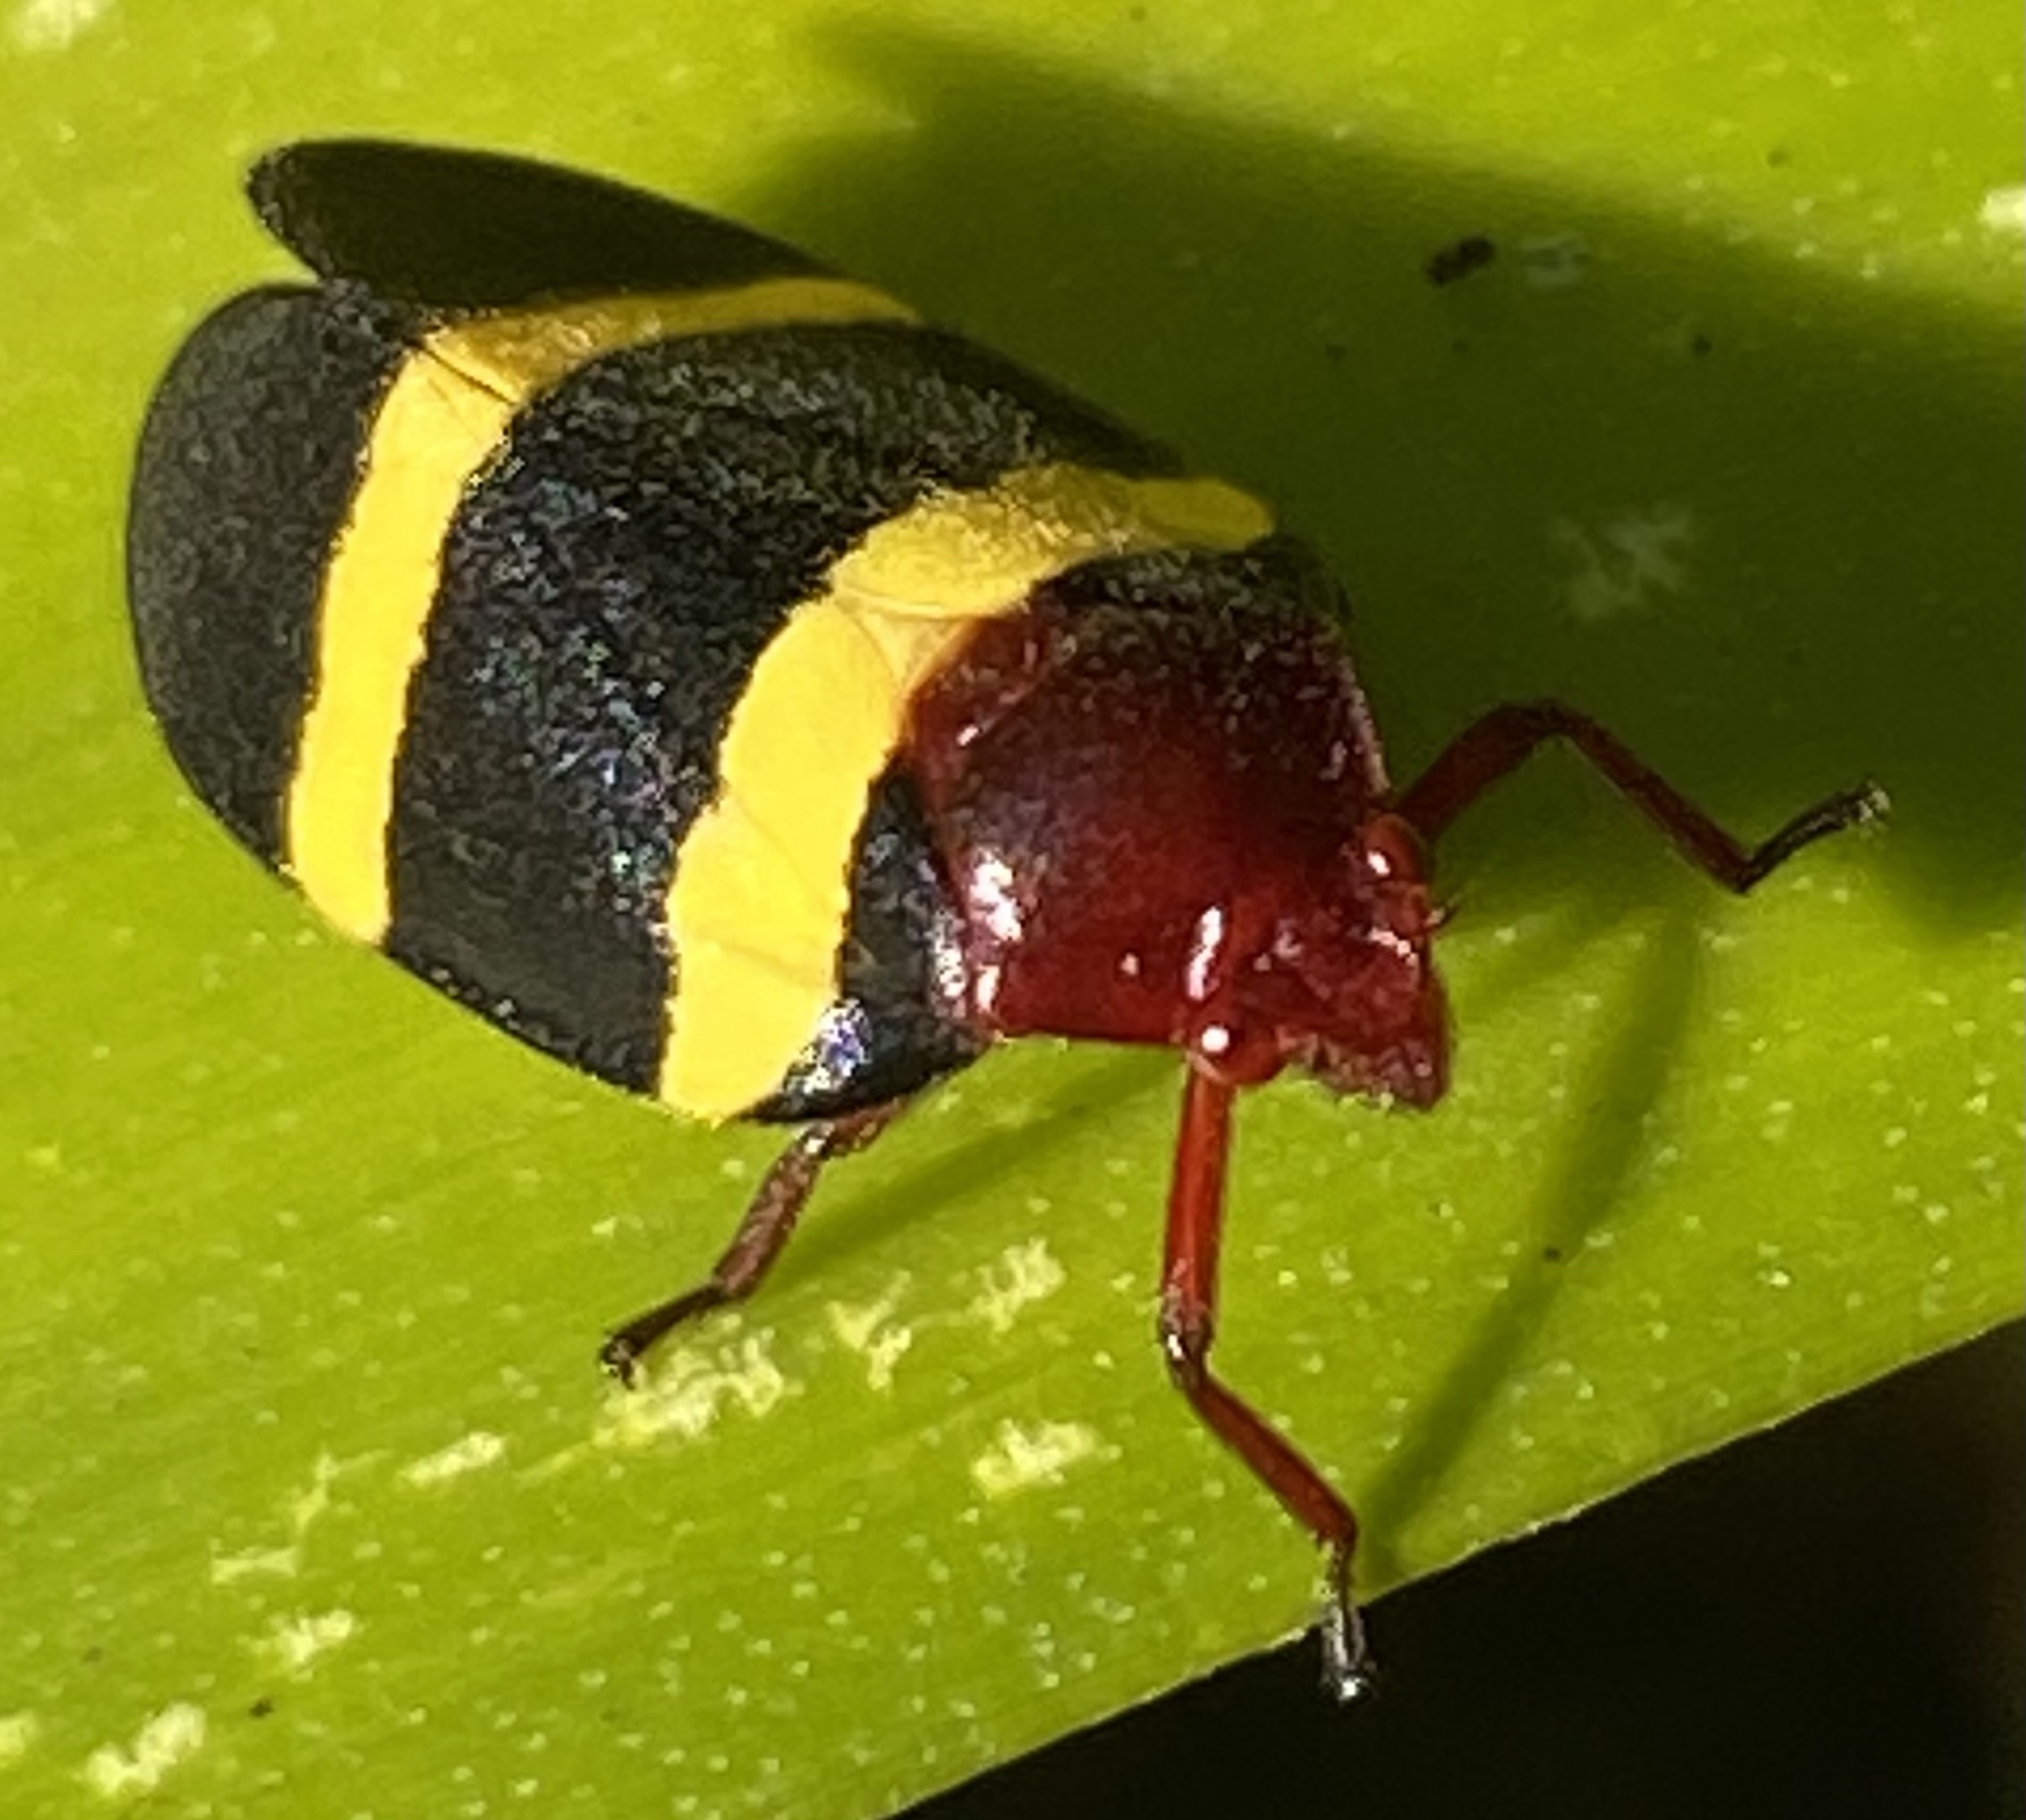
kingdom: Animalia
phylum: Arthropoda
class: Insecta
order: Hemiptera
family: Cercopidae
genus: Sphenorhina
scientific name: Sphenorhina rubra
